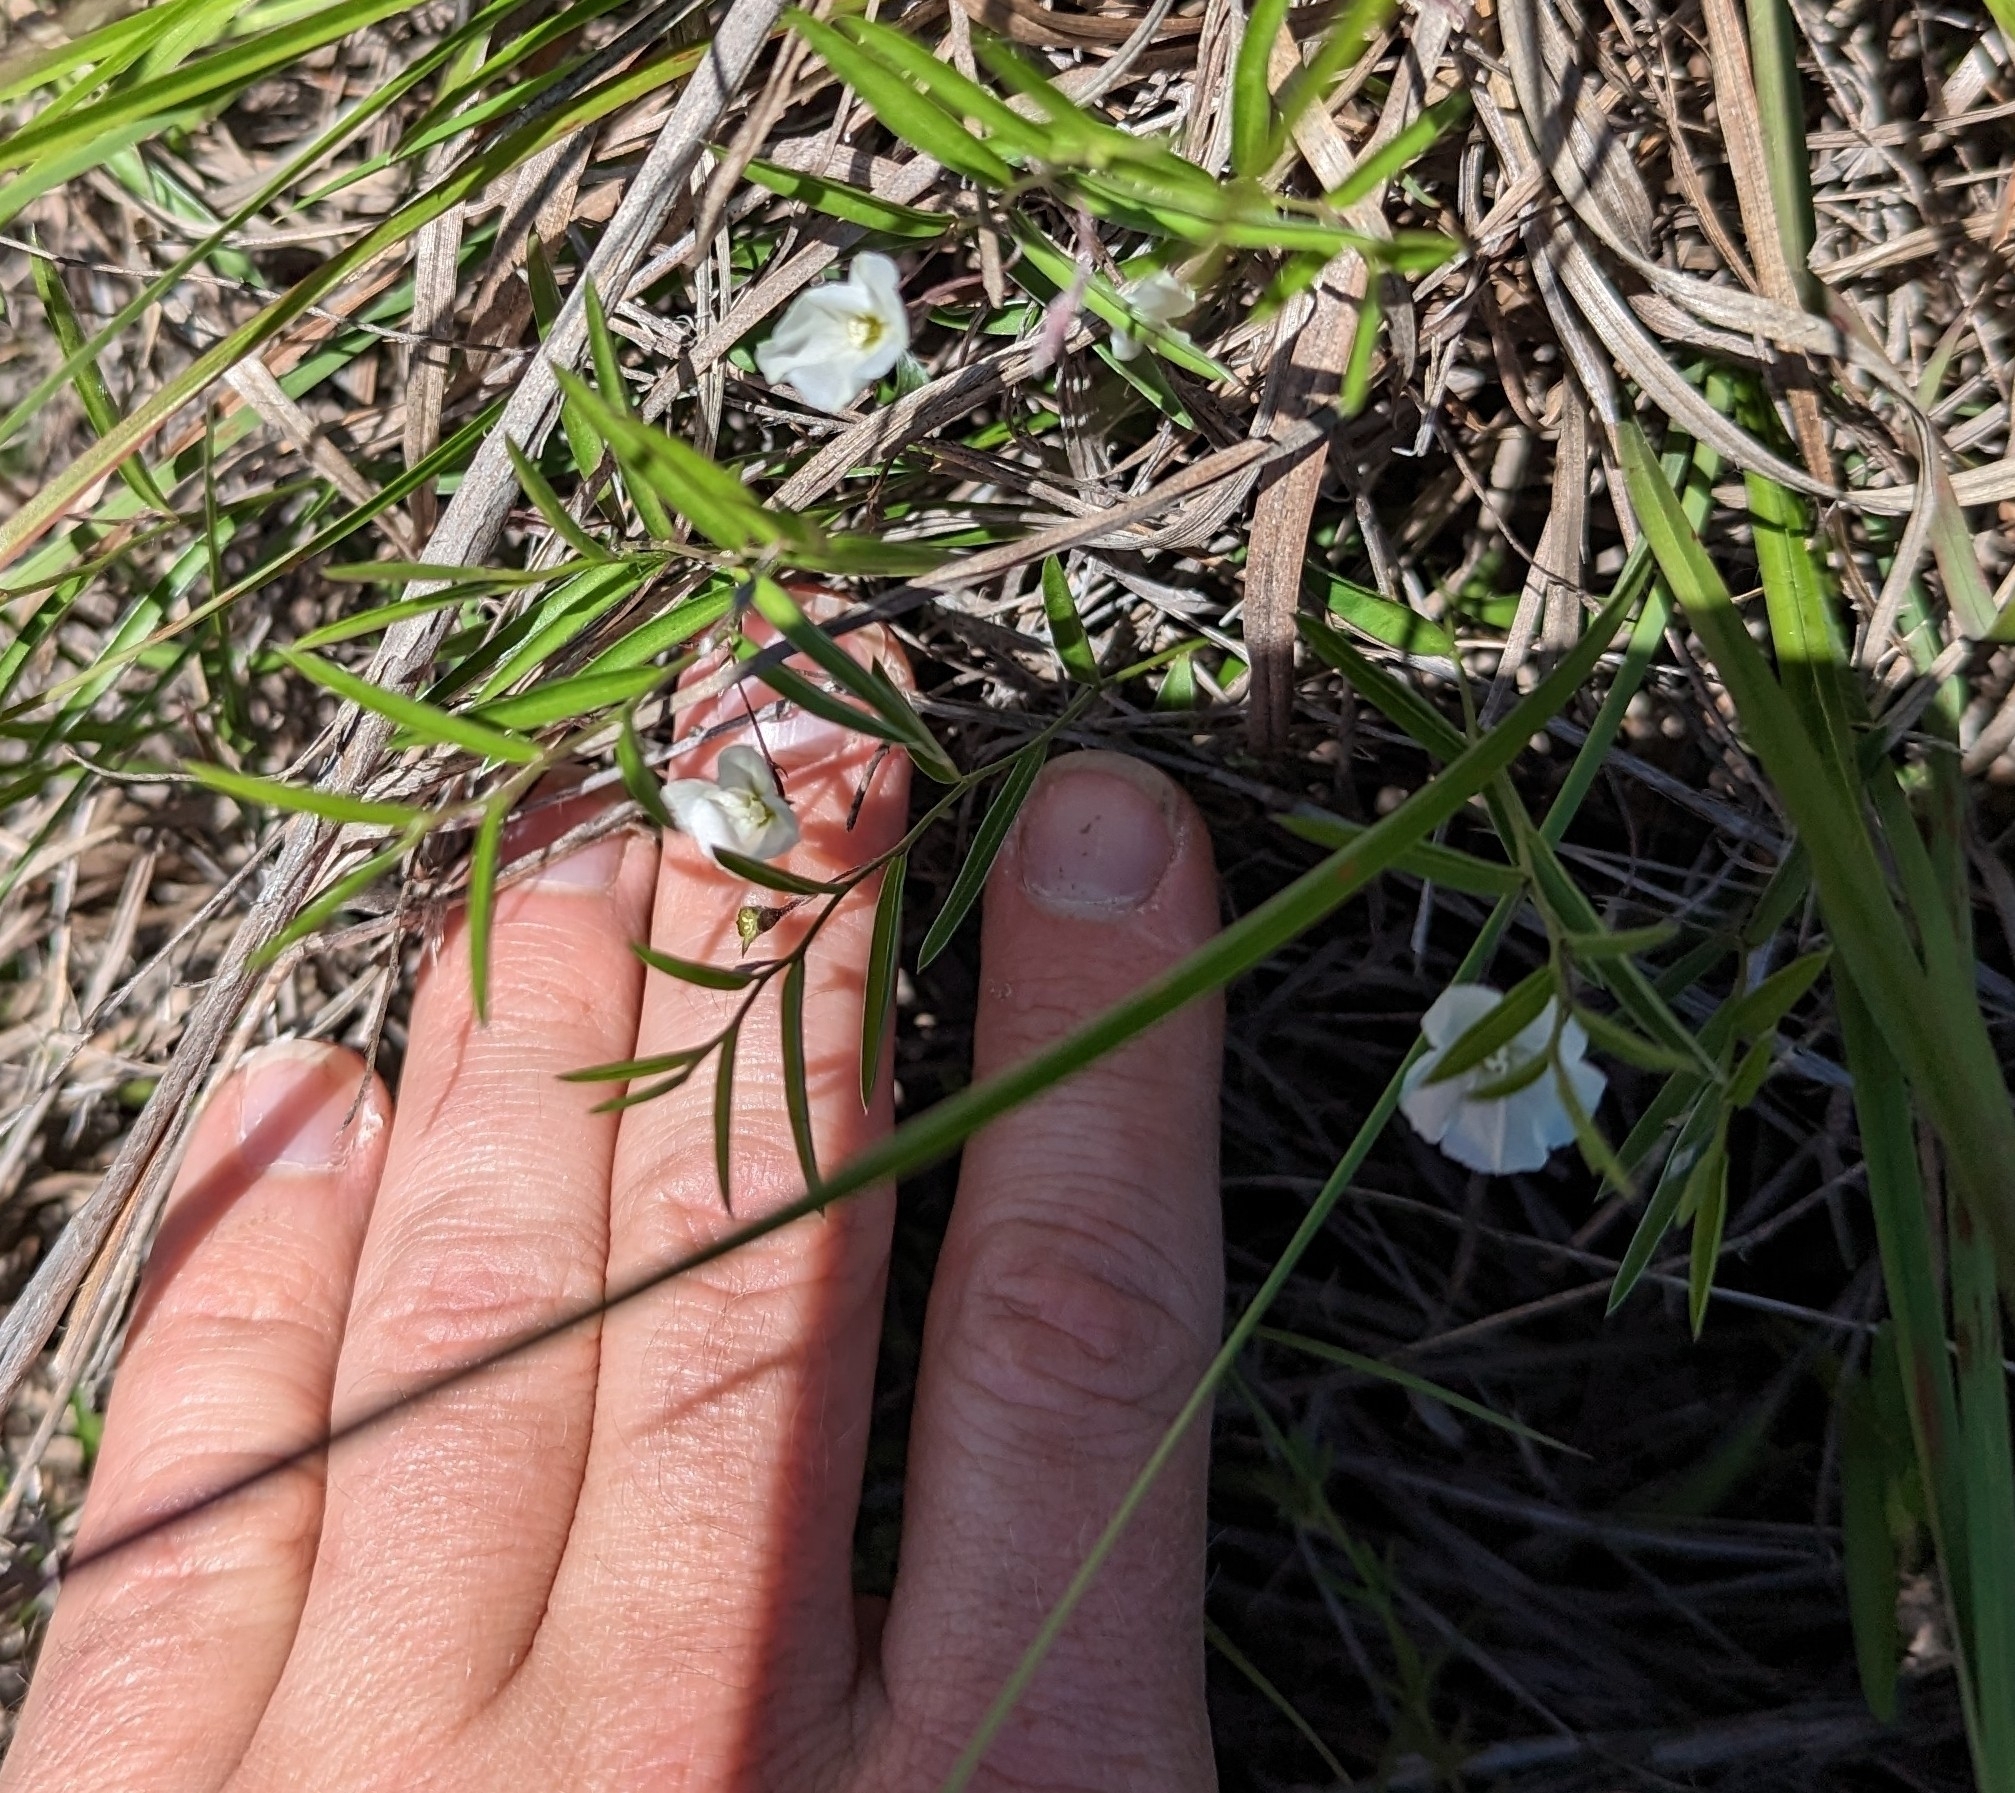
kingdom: Plantae
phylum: Tracheophyta
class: Magnoliopsida
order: Solanales
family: Convolvulaceae
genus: Evolvulus
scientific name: Evolvulus sericeus
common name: Blue dots
